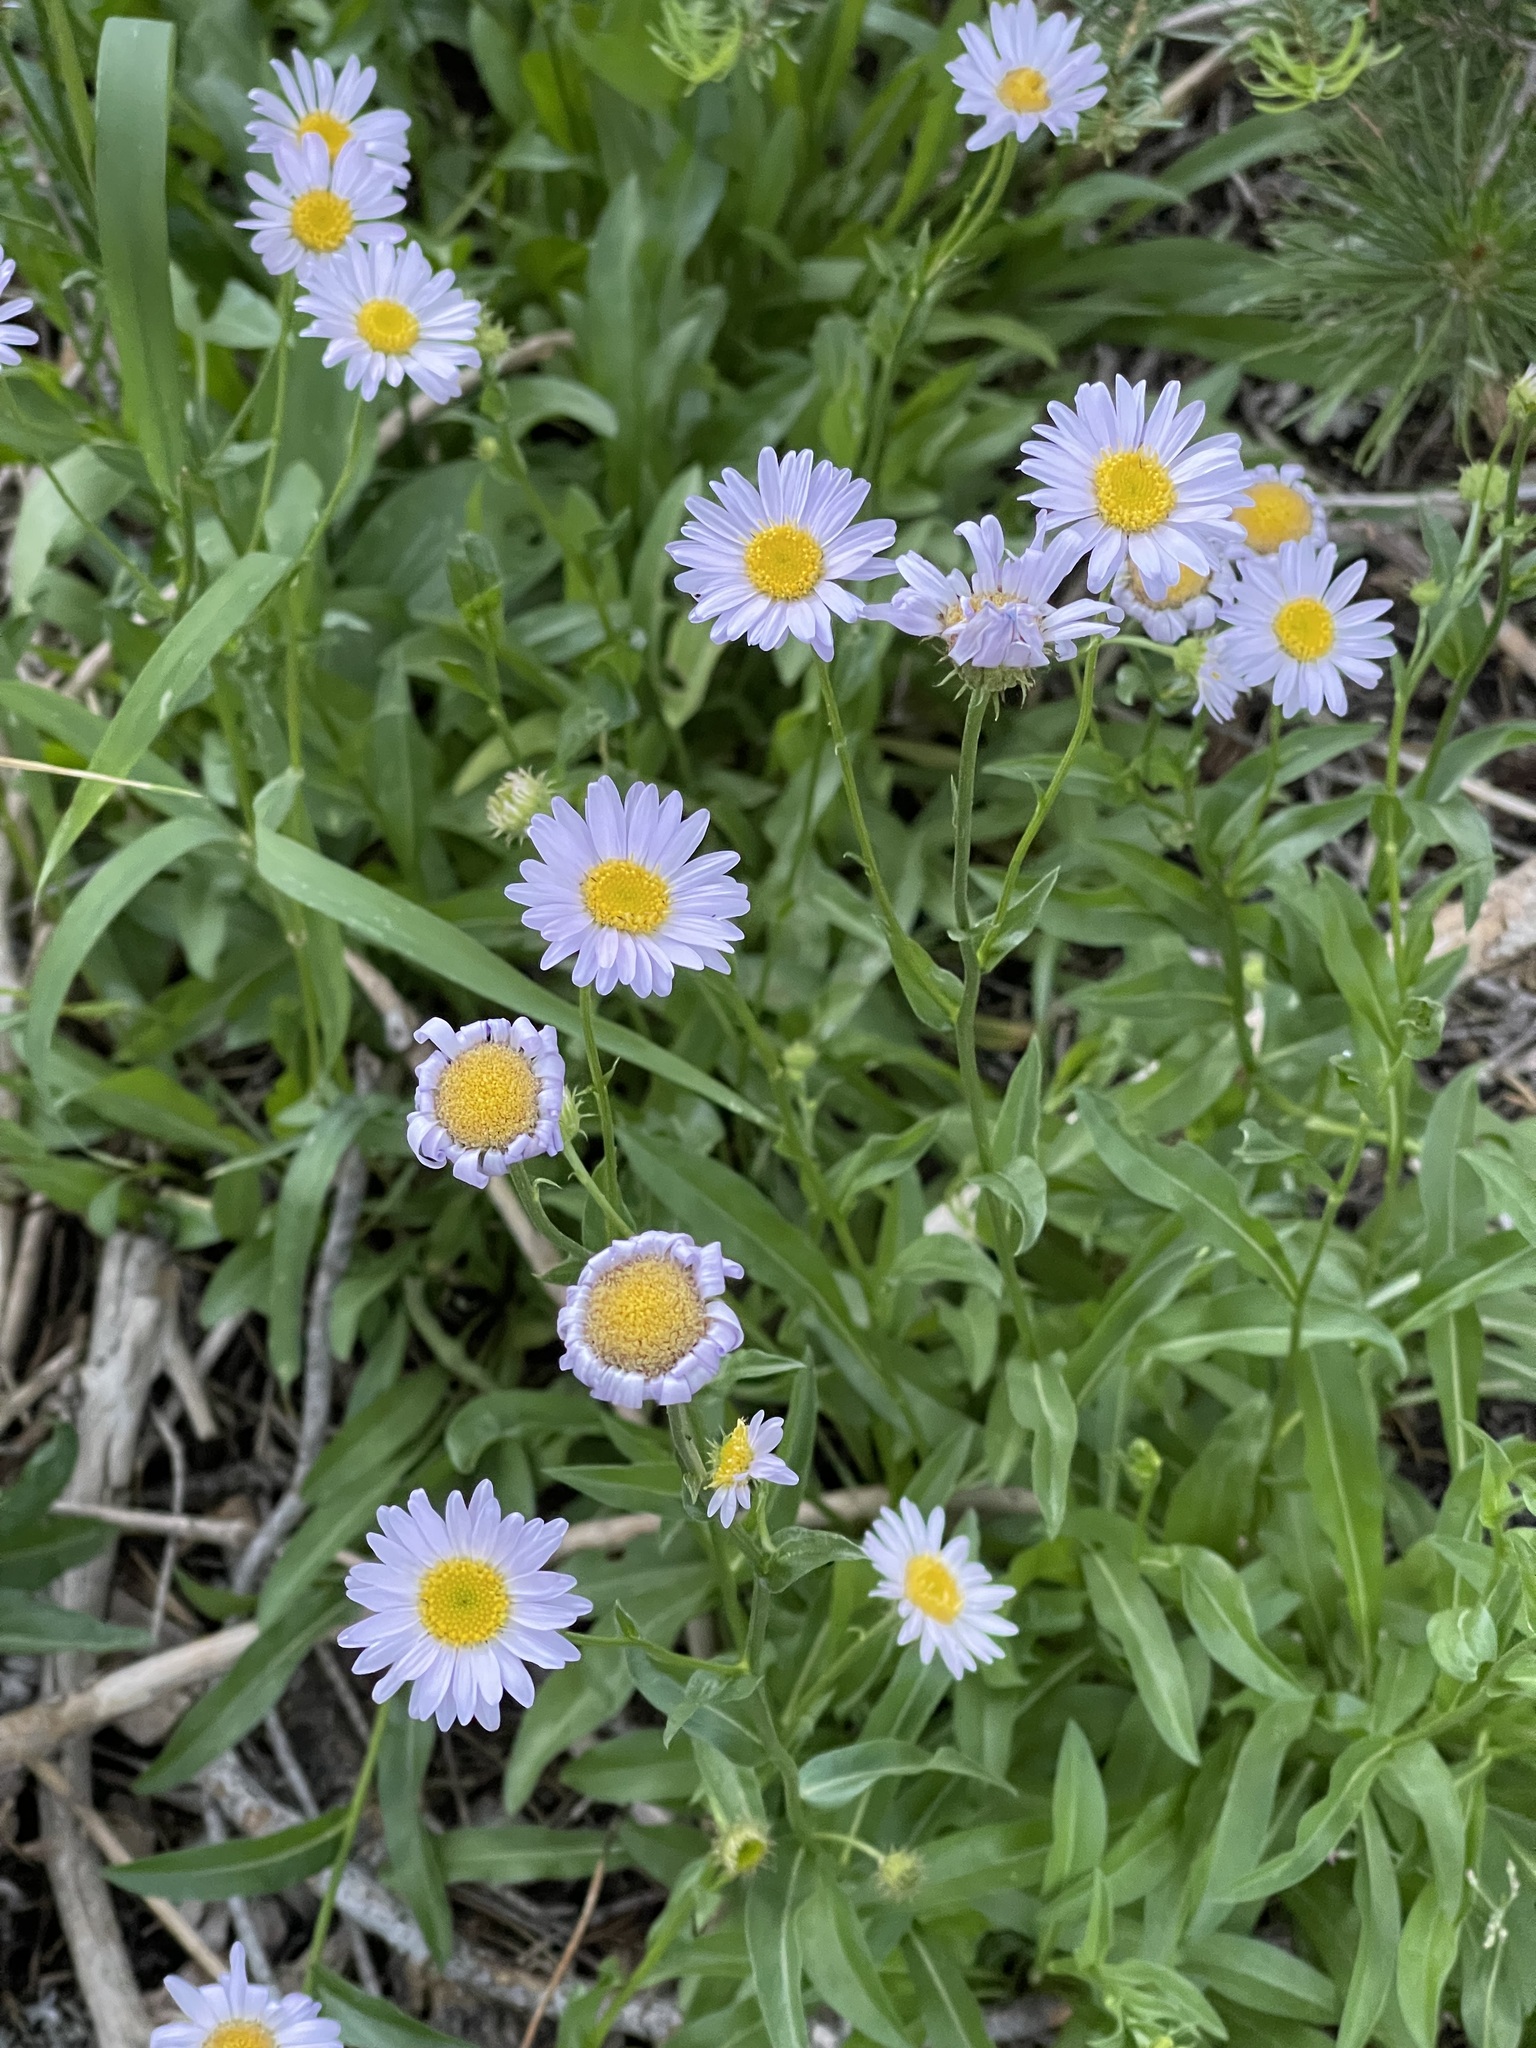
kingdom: Plantae
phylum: Tracheophyta
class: Magnoliopsida
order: Asterales
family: Asteraceae
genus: Erigeron
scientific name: Erigeron glacialis
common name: Subalpine fleabane
